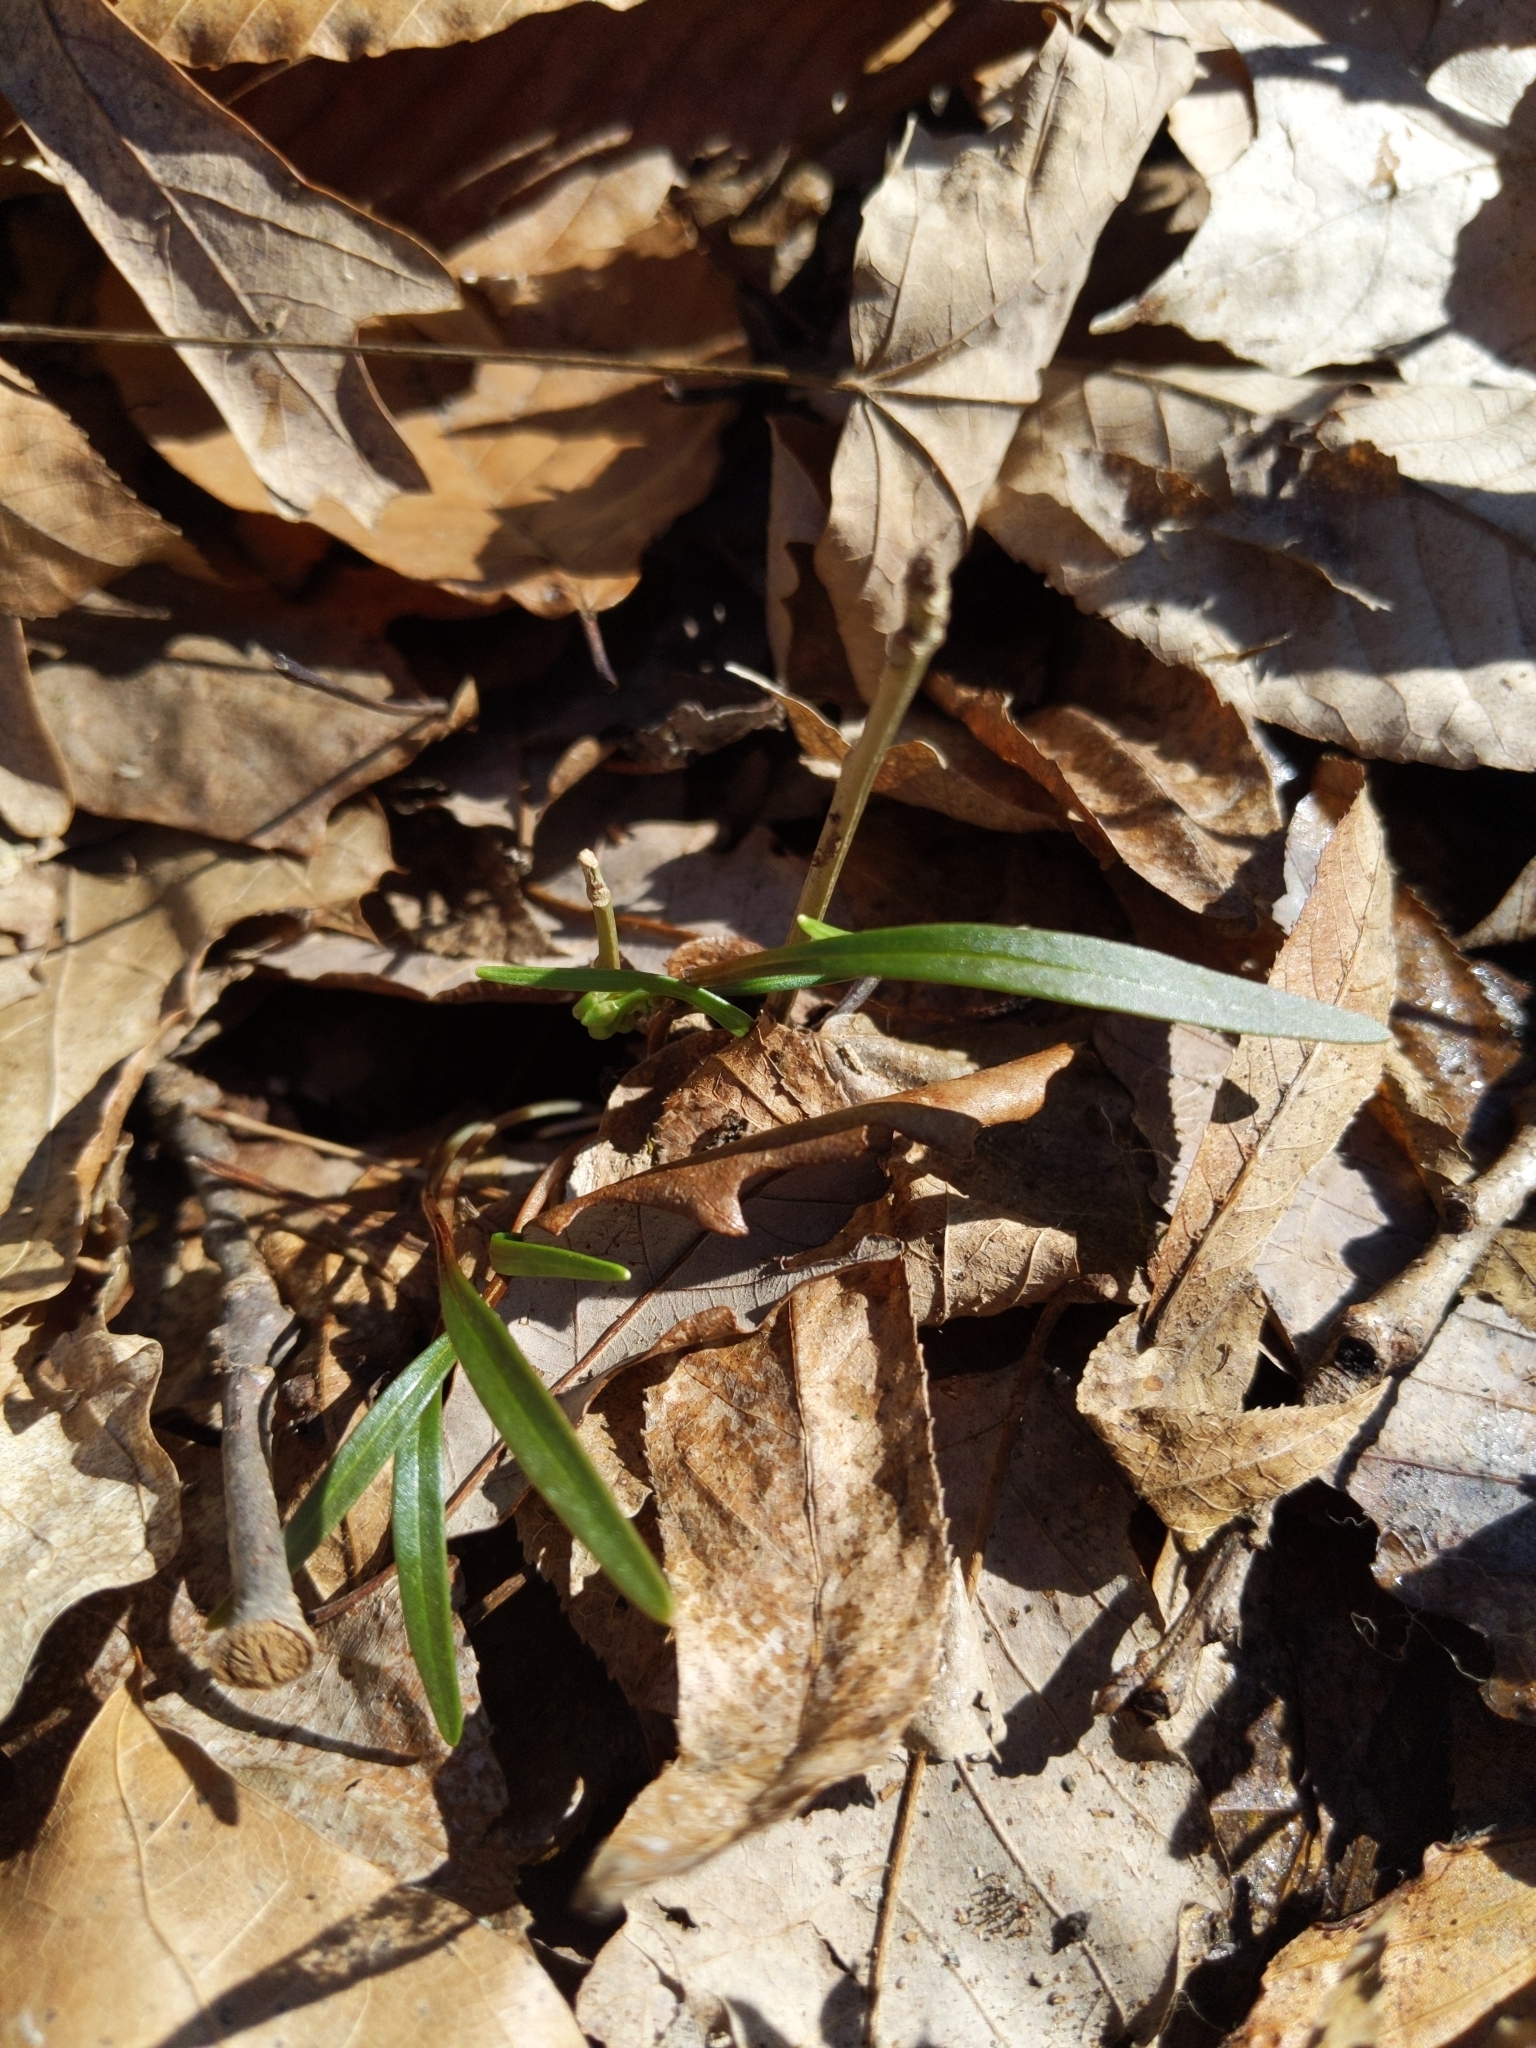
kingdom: Plantae
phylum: Tracheophyta
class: Magnoliopsida
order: Caryophyllales
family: Montiaceae
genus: Claytonia
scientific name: Claytonia virginica
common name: Virginia springbeauty
